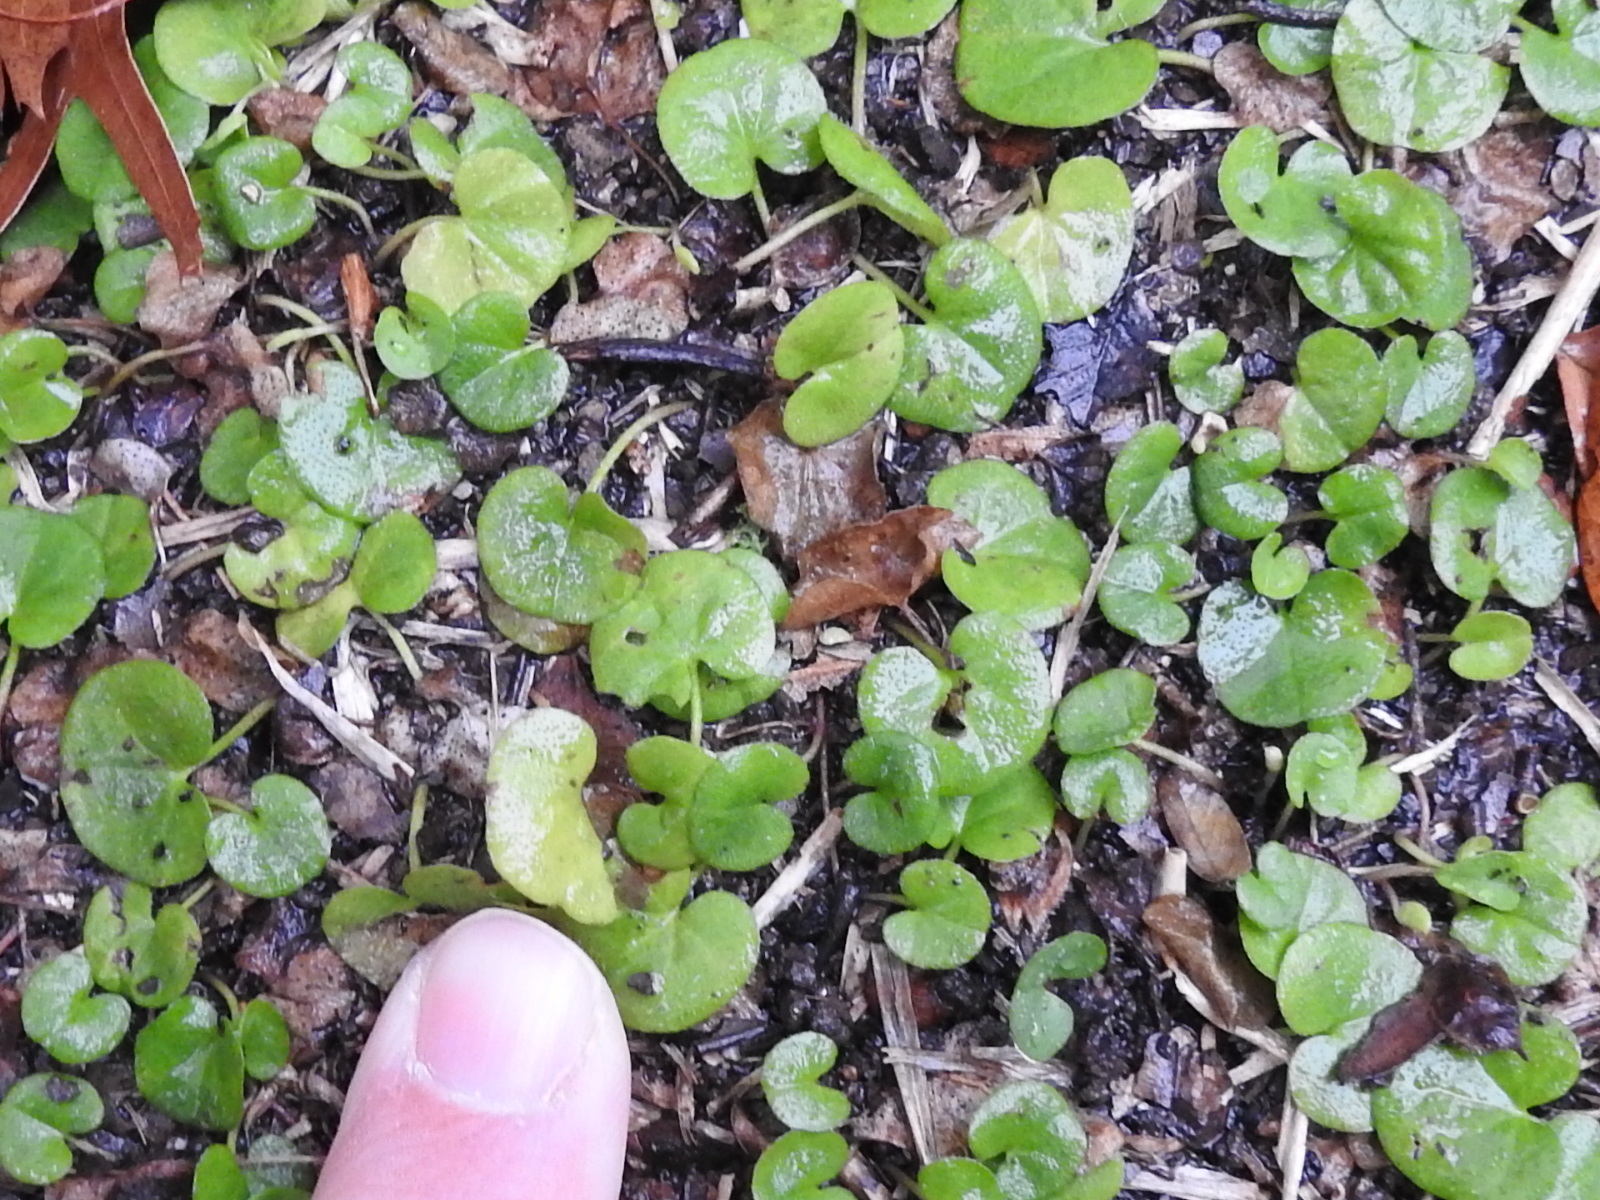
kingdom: Plantae
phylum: Tracheophyta
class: Magnoliopsida
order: Solanales
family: Convolvulaceae
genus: Dichondra
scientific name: Dichondra carolinensis
